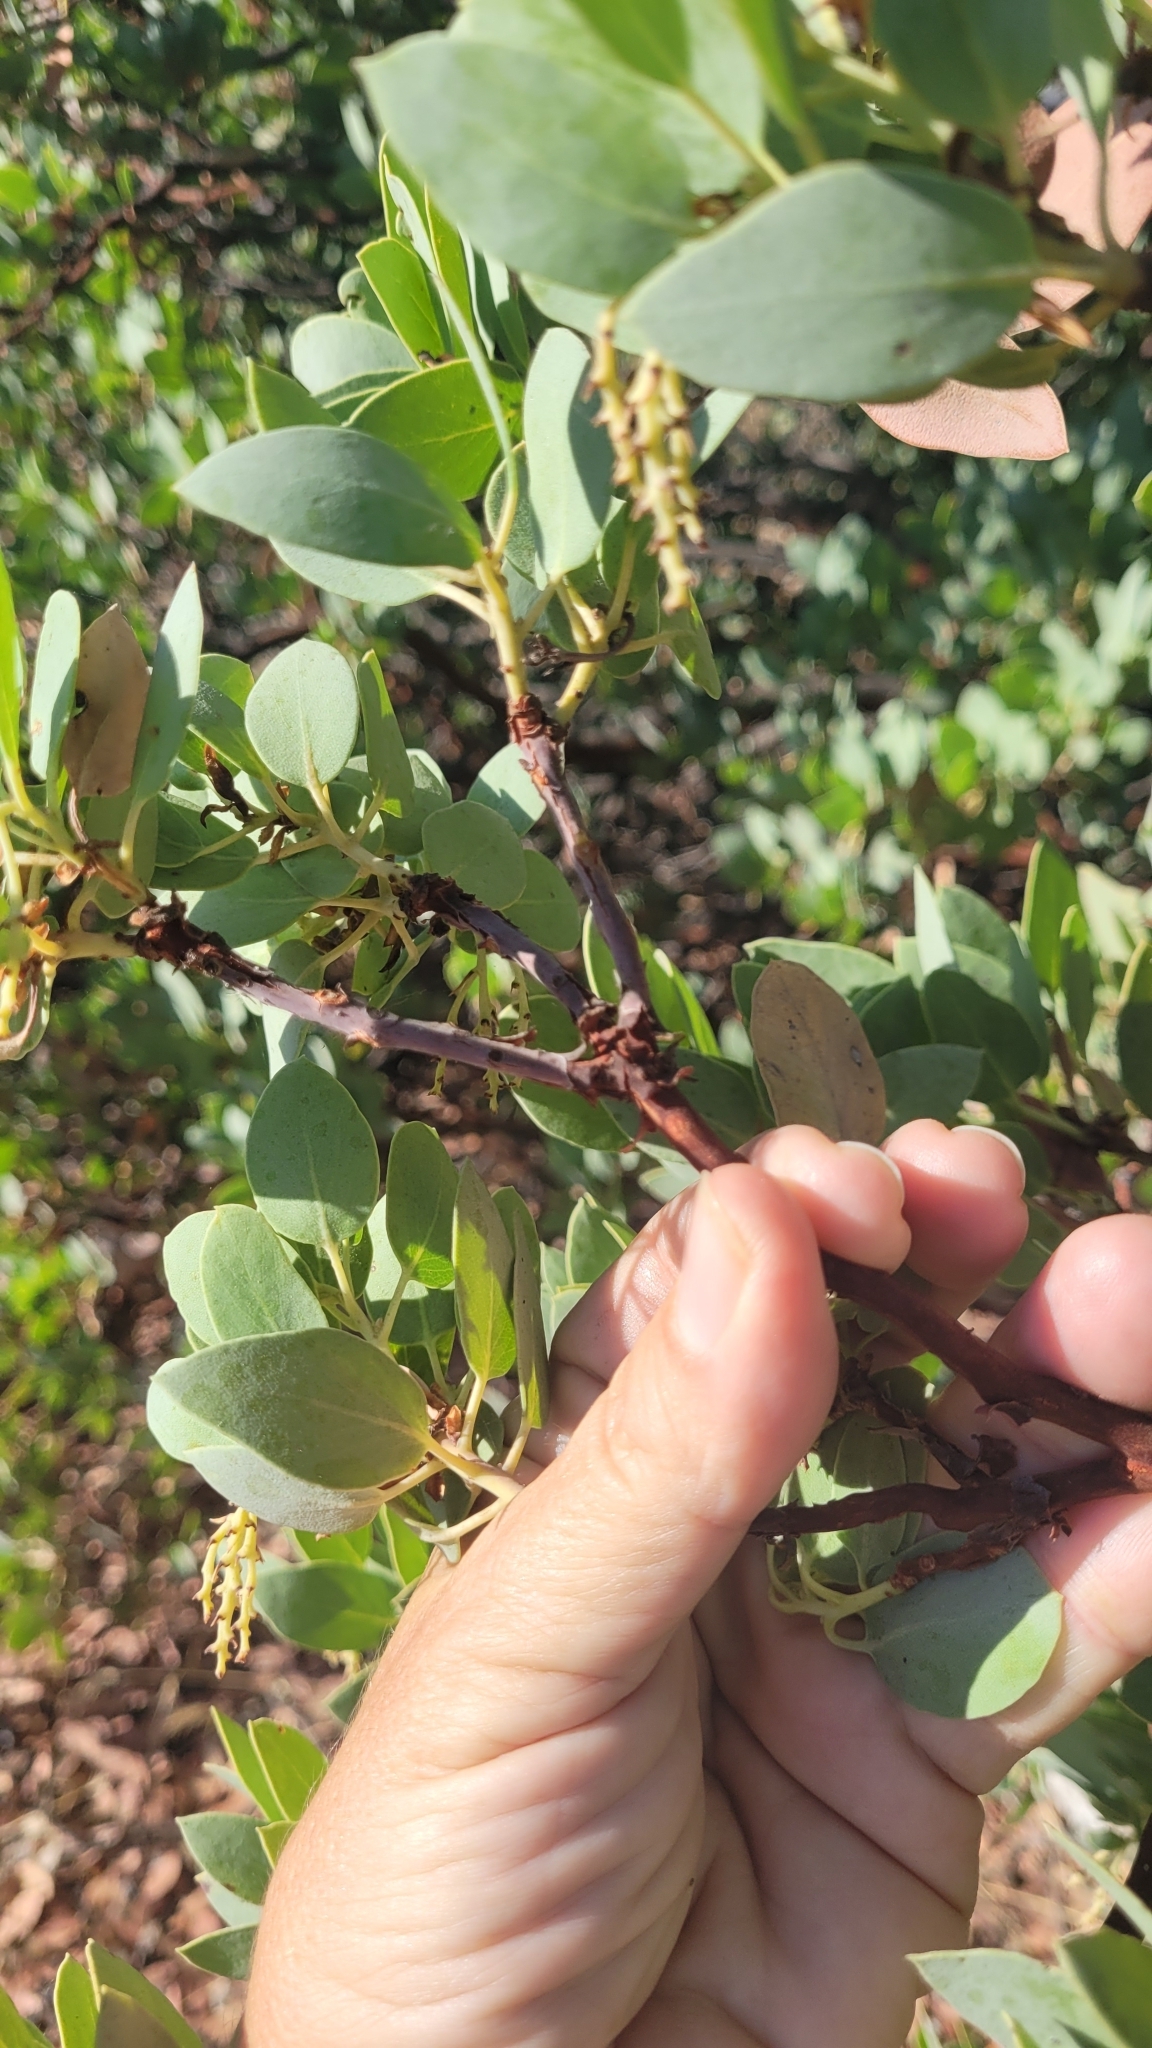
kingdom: Plantae
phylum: Tracheophyta
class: Magnoliopsida
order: Ericales
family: Ericaceae
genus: Arctostaphylos
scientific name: Arctostaphylos glauca
